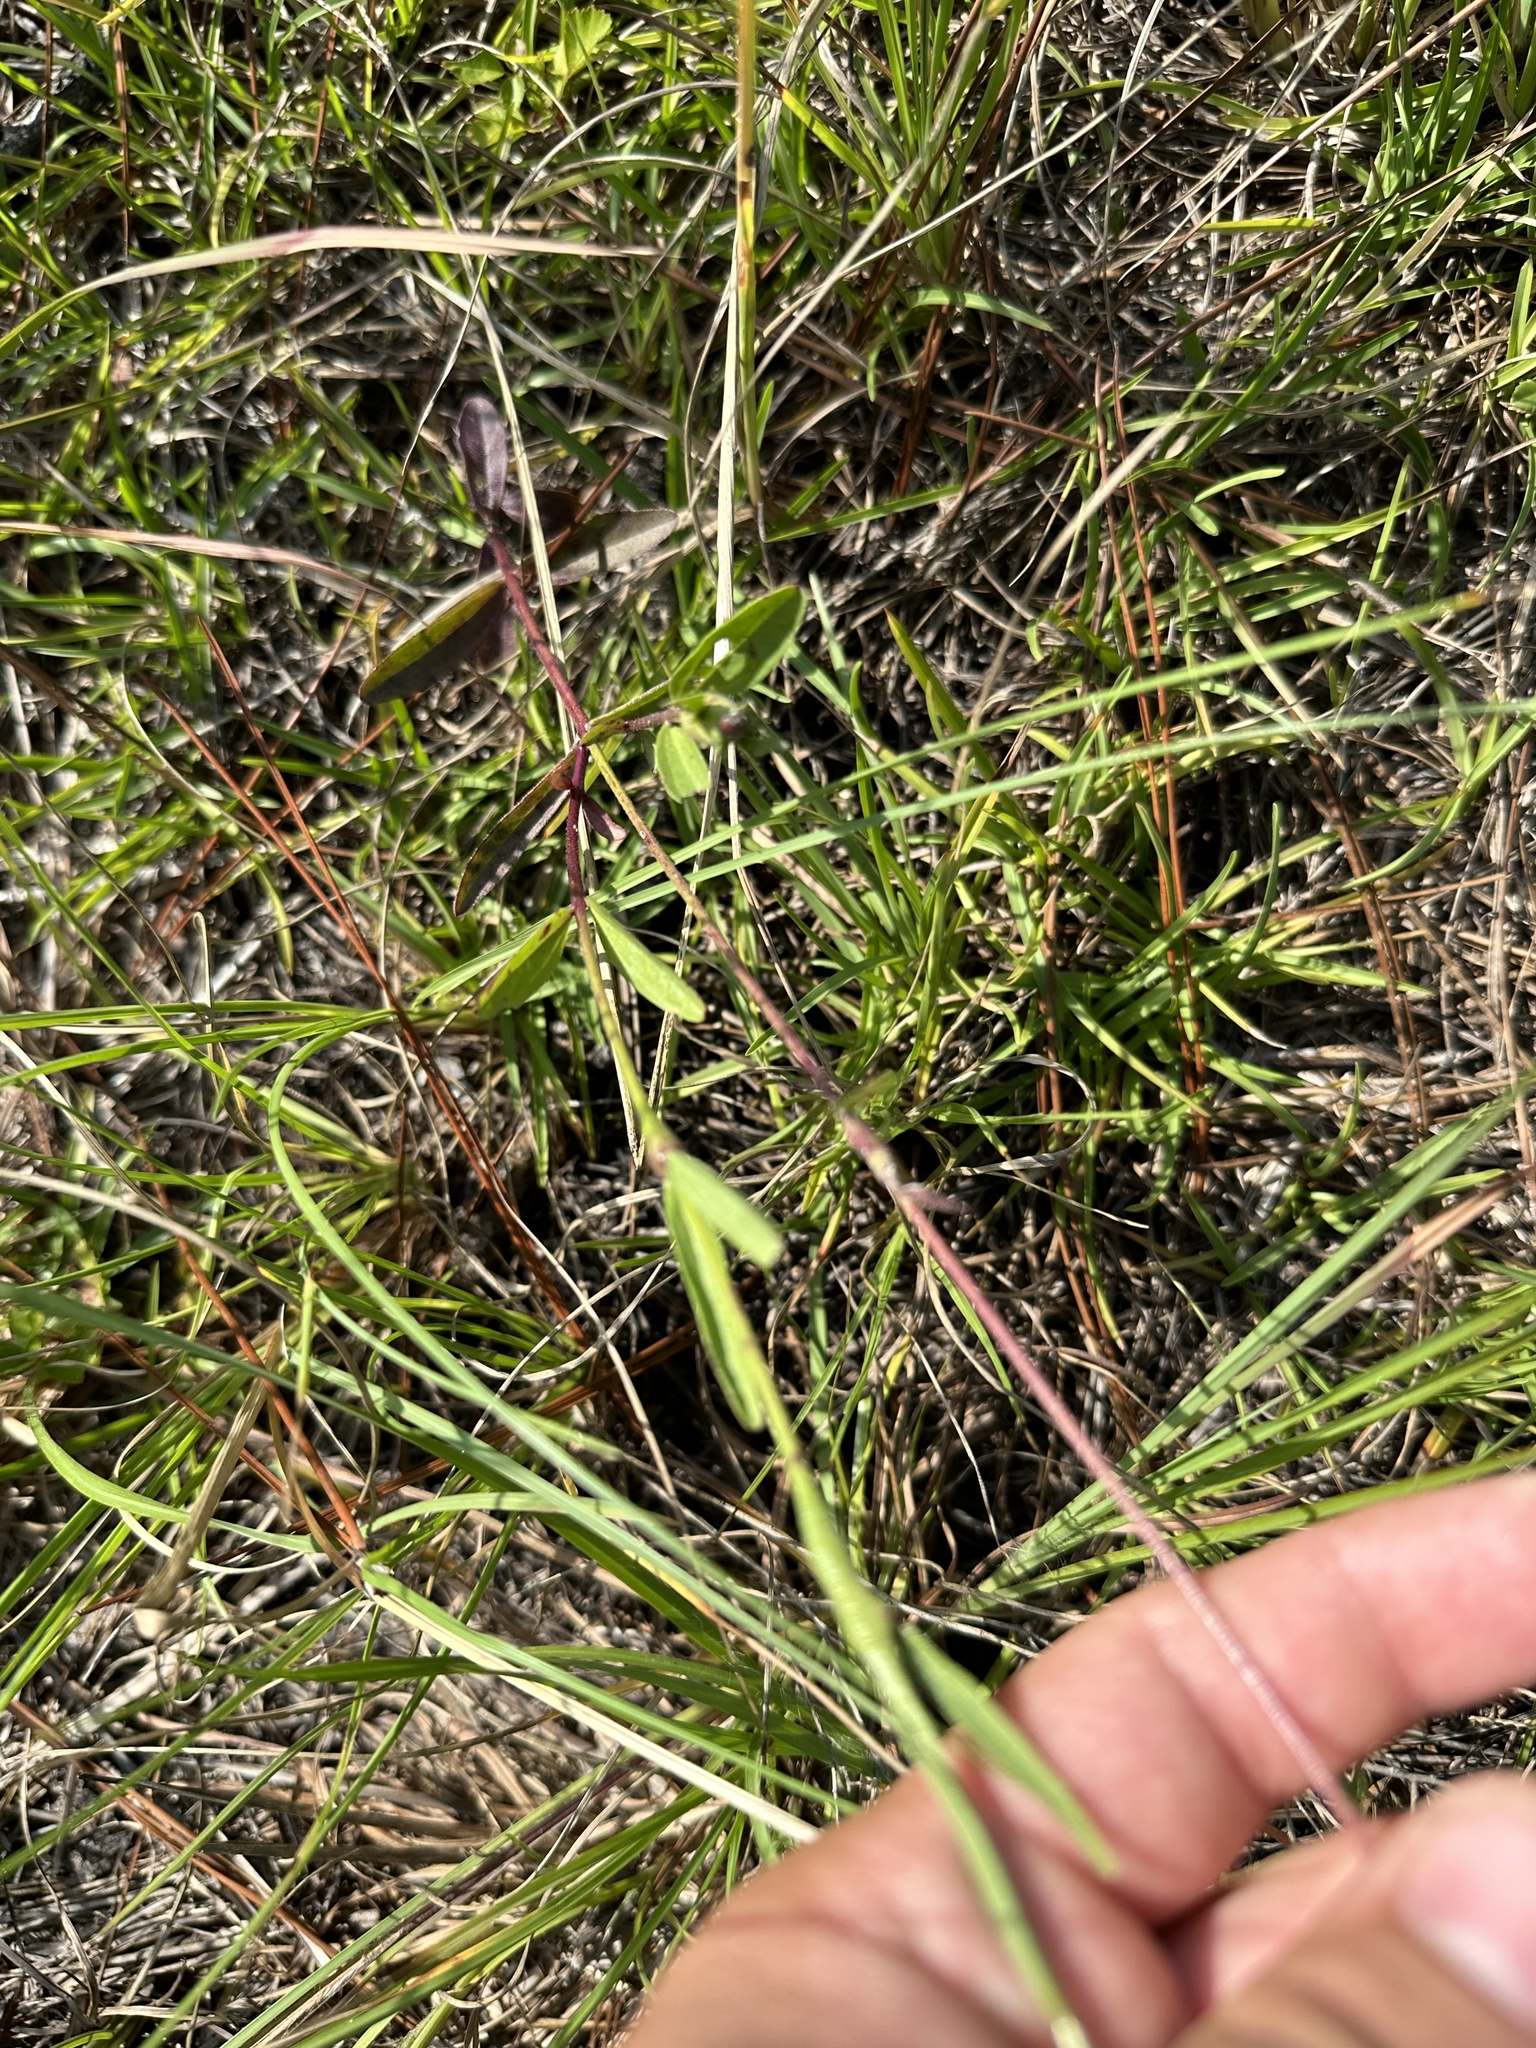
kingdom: Plantae
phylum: Tracheophyta
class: Magnoliopsida
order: Lamiales
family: Orobanchaceae
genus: Buchnera
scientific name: Buchnera floridana
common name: Florida bluehearts
